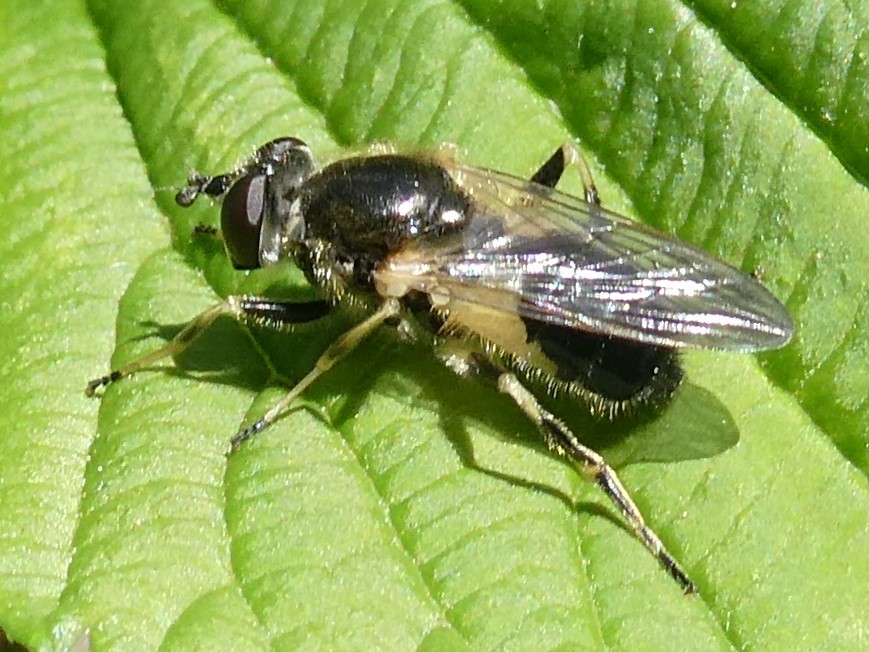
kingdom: Animalia
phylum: Arthropoda
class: Insecta
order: Diptera
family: Syrphidae
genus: Blera
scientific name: Blera badia
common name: Common wood fly
